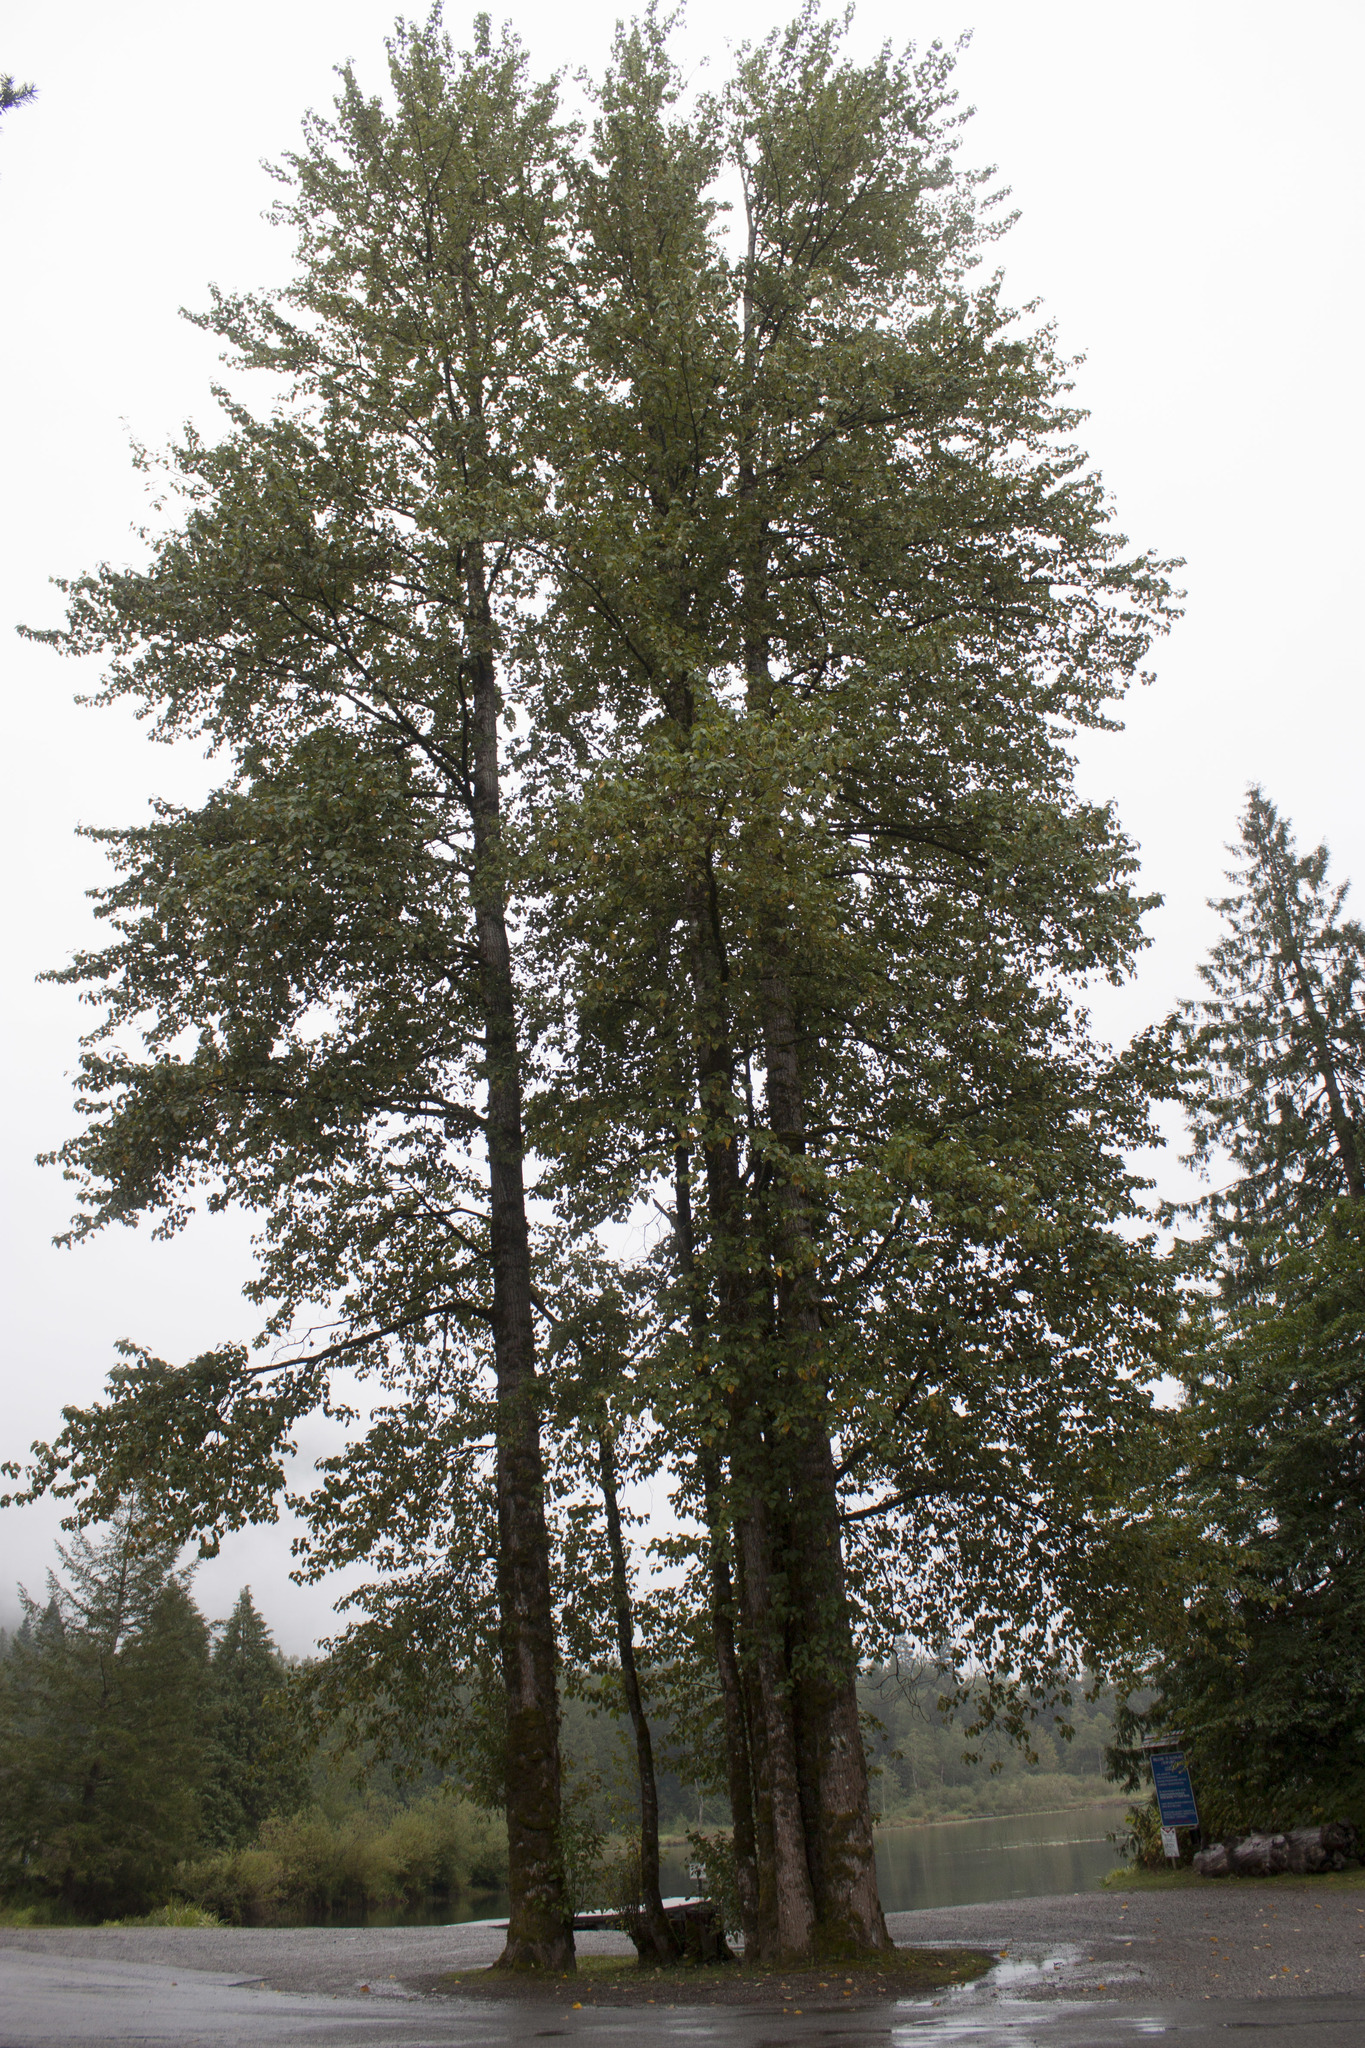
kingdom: Plantae
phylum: Tracheophyta
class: Magnoliopsida
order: Malpighiales
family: Salicaceae
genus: Populus
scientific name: Populus trichocarpa
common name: Black cottonwood
